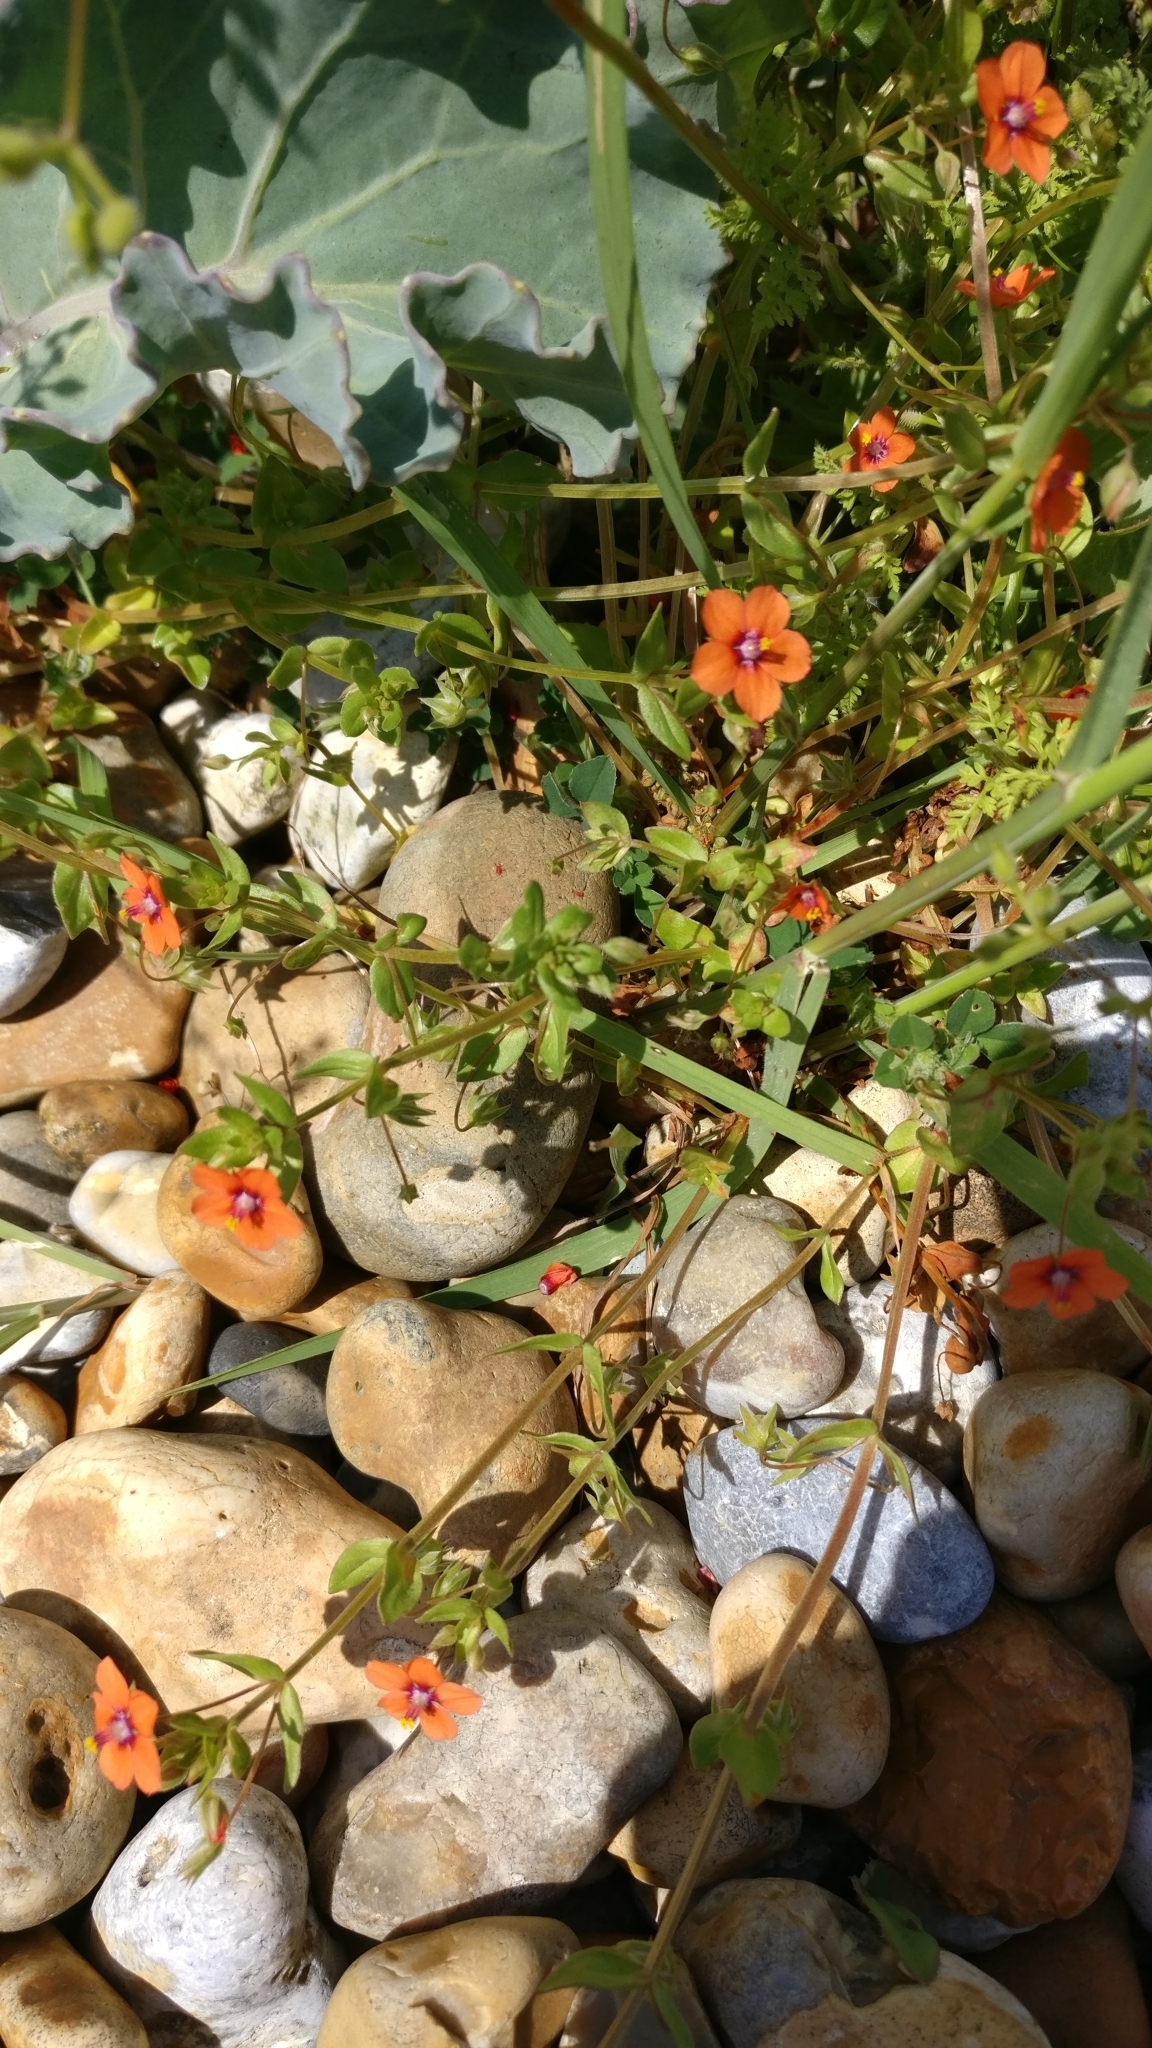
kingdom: Plantae
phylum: Tracheophyta
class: Magnoliopsida
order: Ericales
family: Primulaceae
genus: Lysimachia
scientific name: Lysimachia arvensis
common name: Scarlet pimpernel
